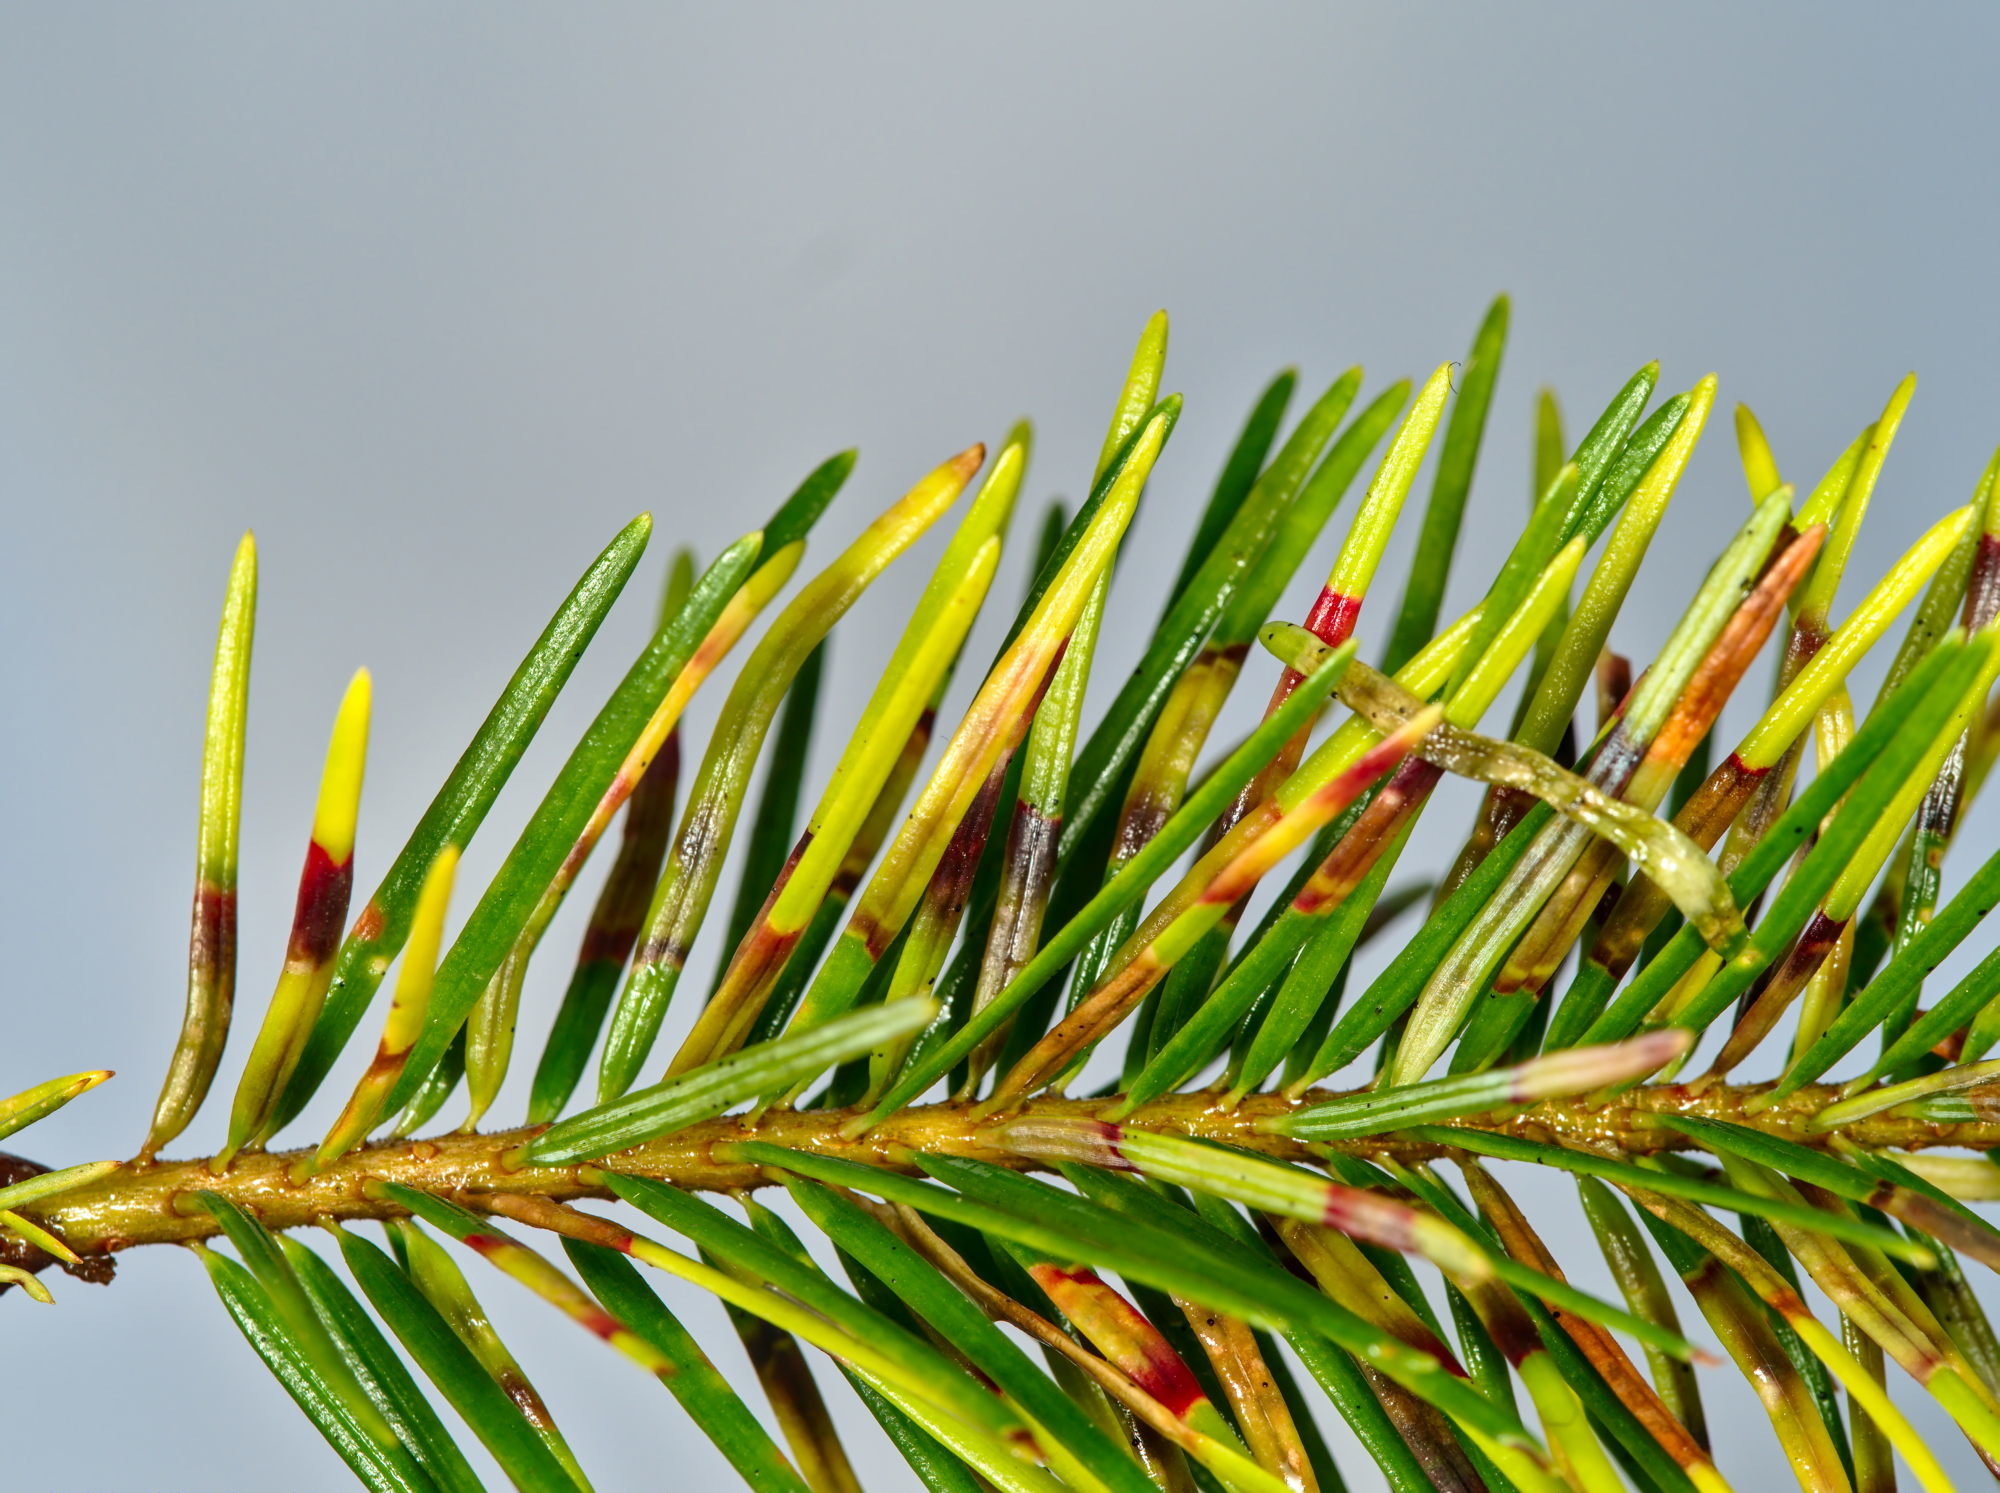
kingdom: Animalia
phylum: Arthropoda
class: Insecta
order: Diptera
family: Cecidomyiidae
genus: Contarinia
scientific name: Contarinia pseudotsugae
